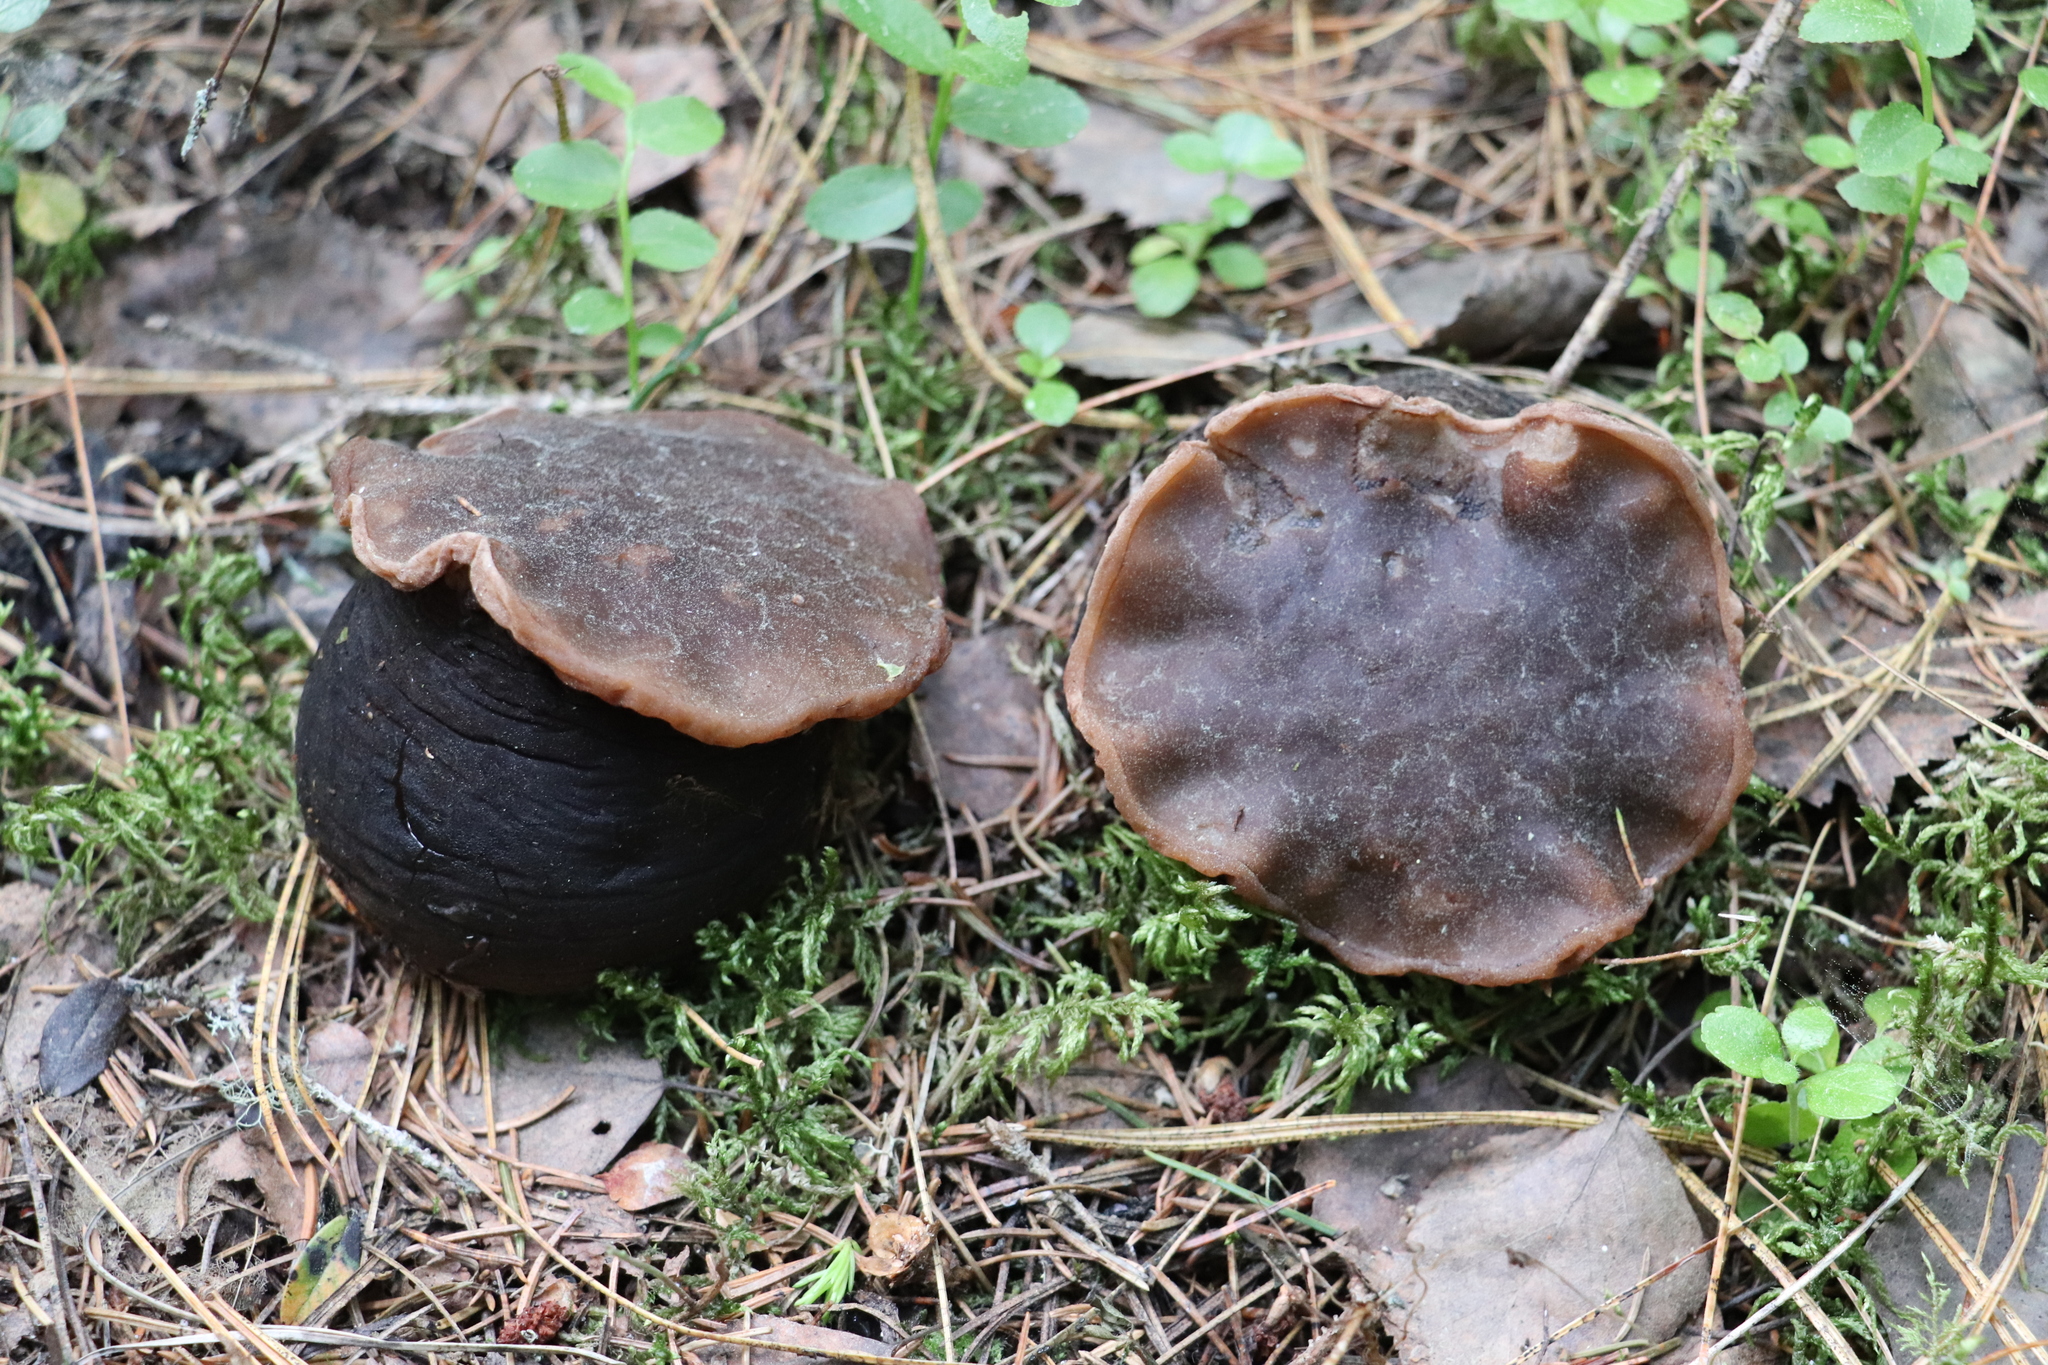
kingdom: Fungi
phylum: Ascomycota
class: Pezizomycetes
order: Pezizales
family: Sarcosomataceae
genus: Sarcosoma
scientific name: Sarcosoma globosum
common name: Charred-pancake cup
